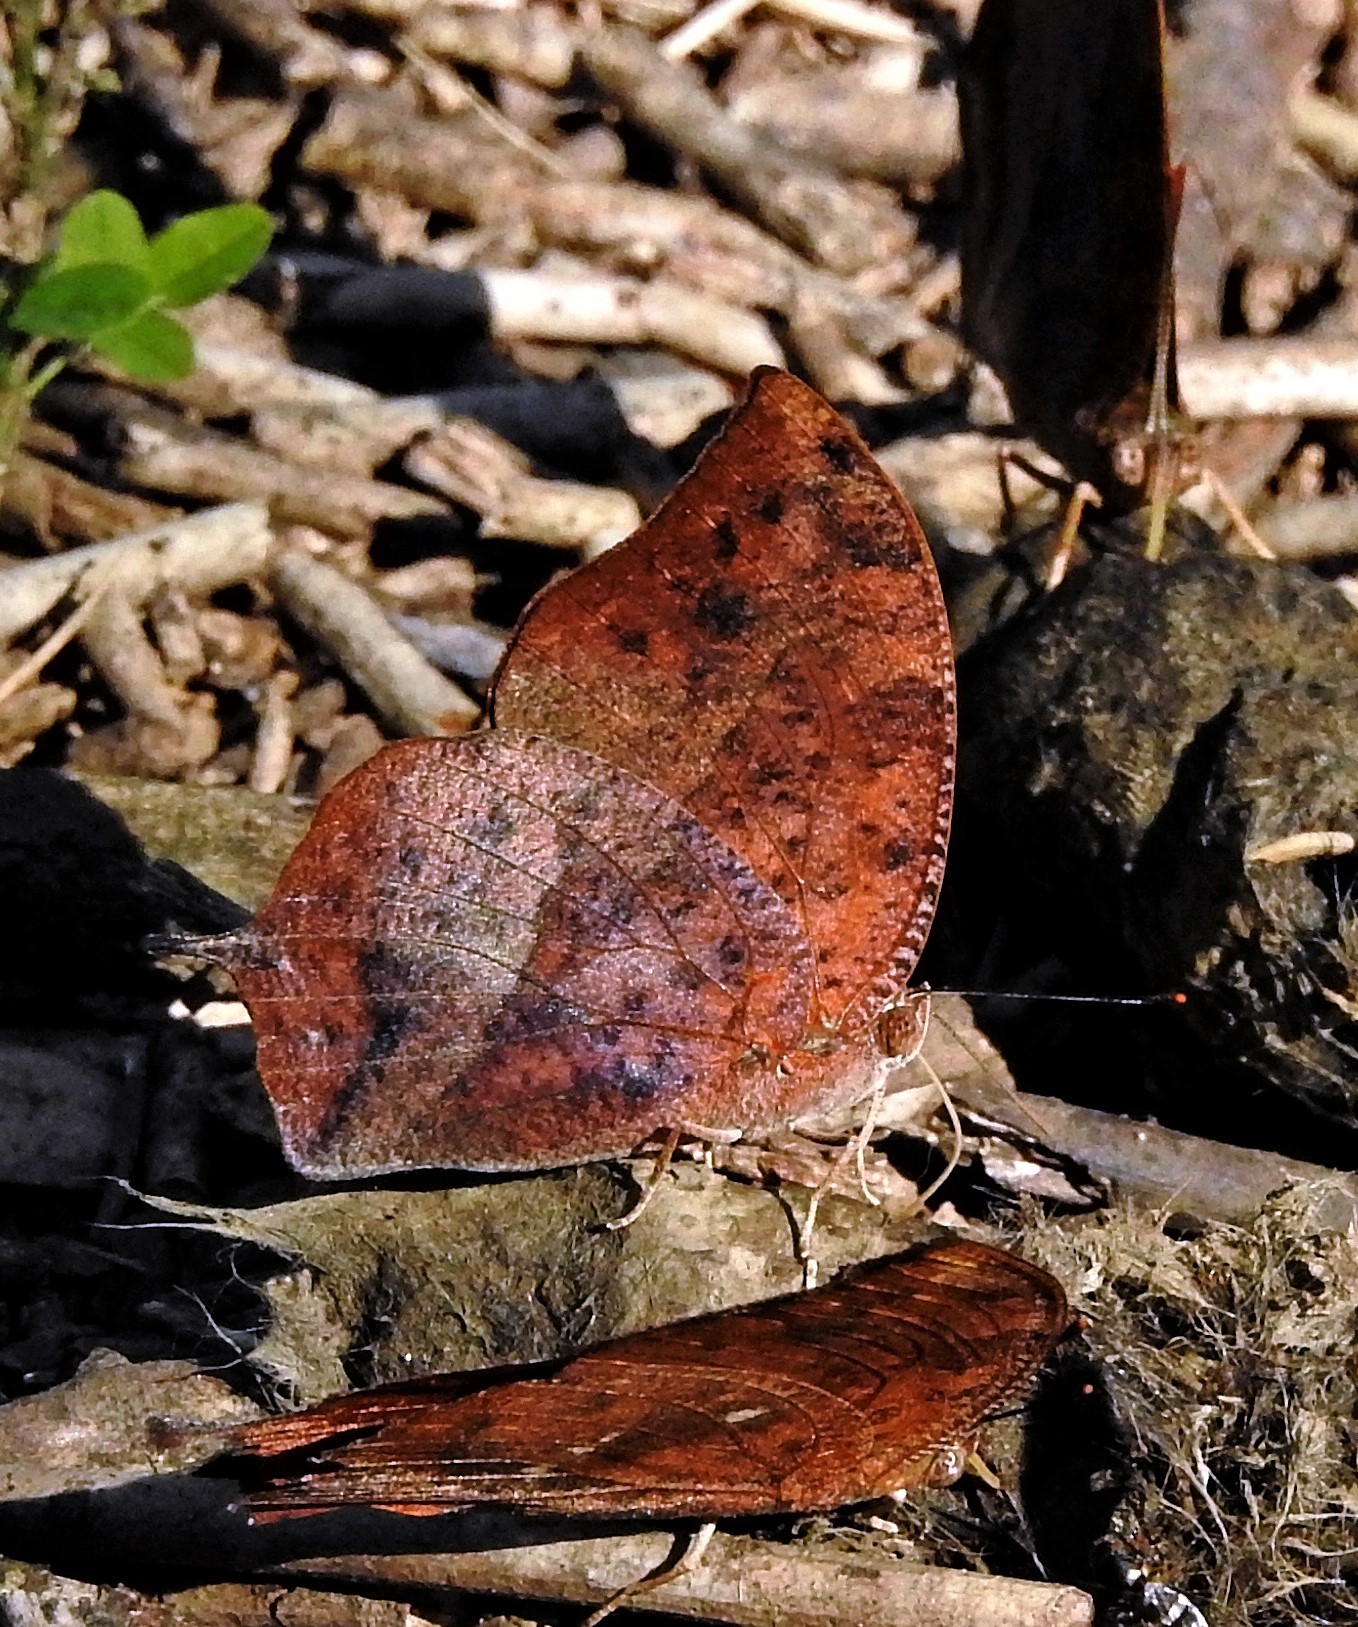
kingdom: Animalia
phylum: Arthropoda
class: Insecta
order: Lepidoptera
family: Nymphalidae
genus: Fountainea
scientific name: Fountainea
